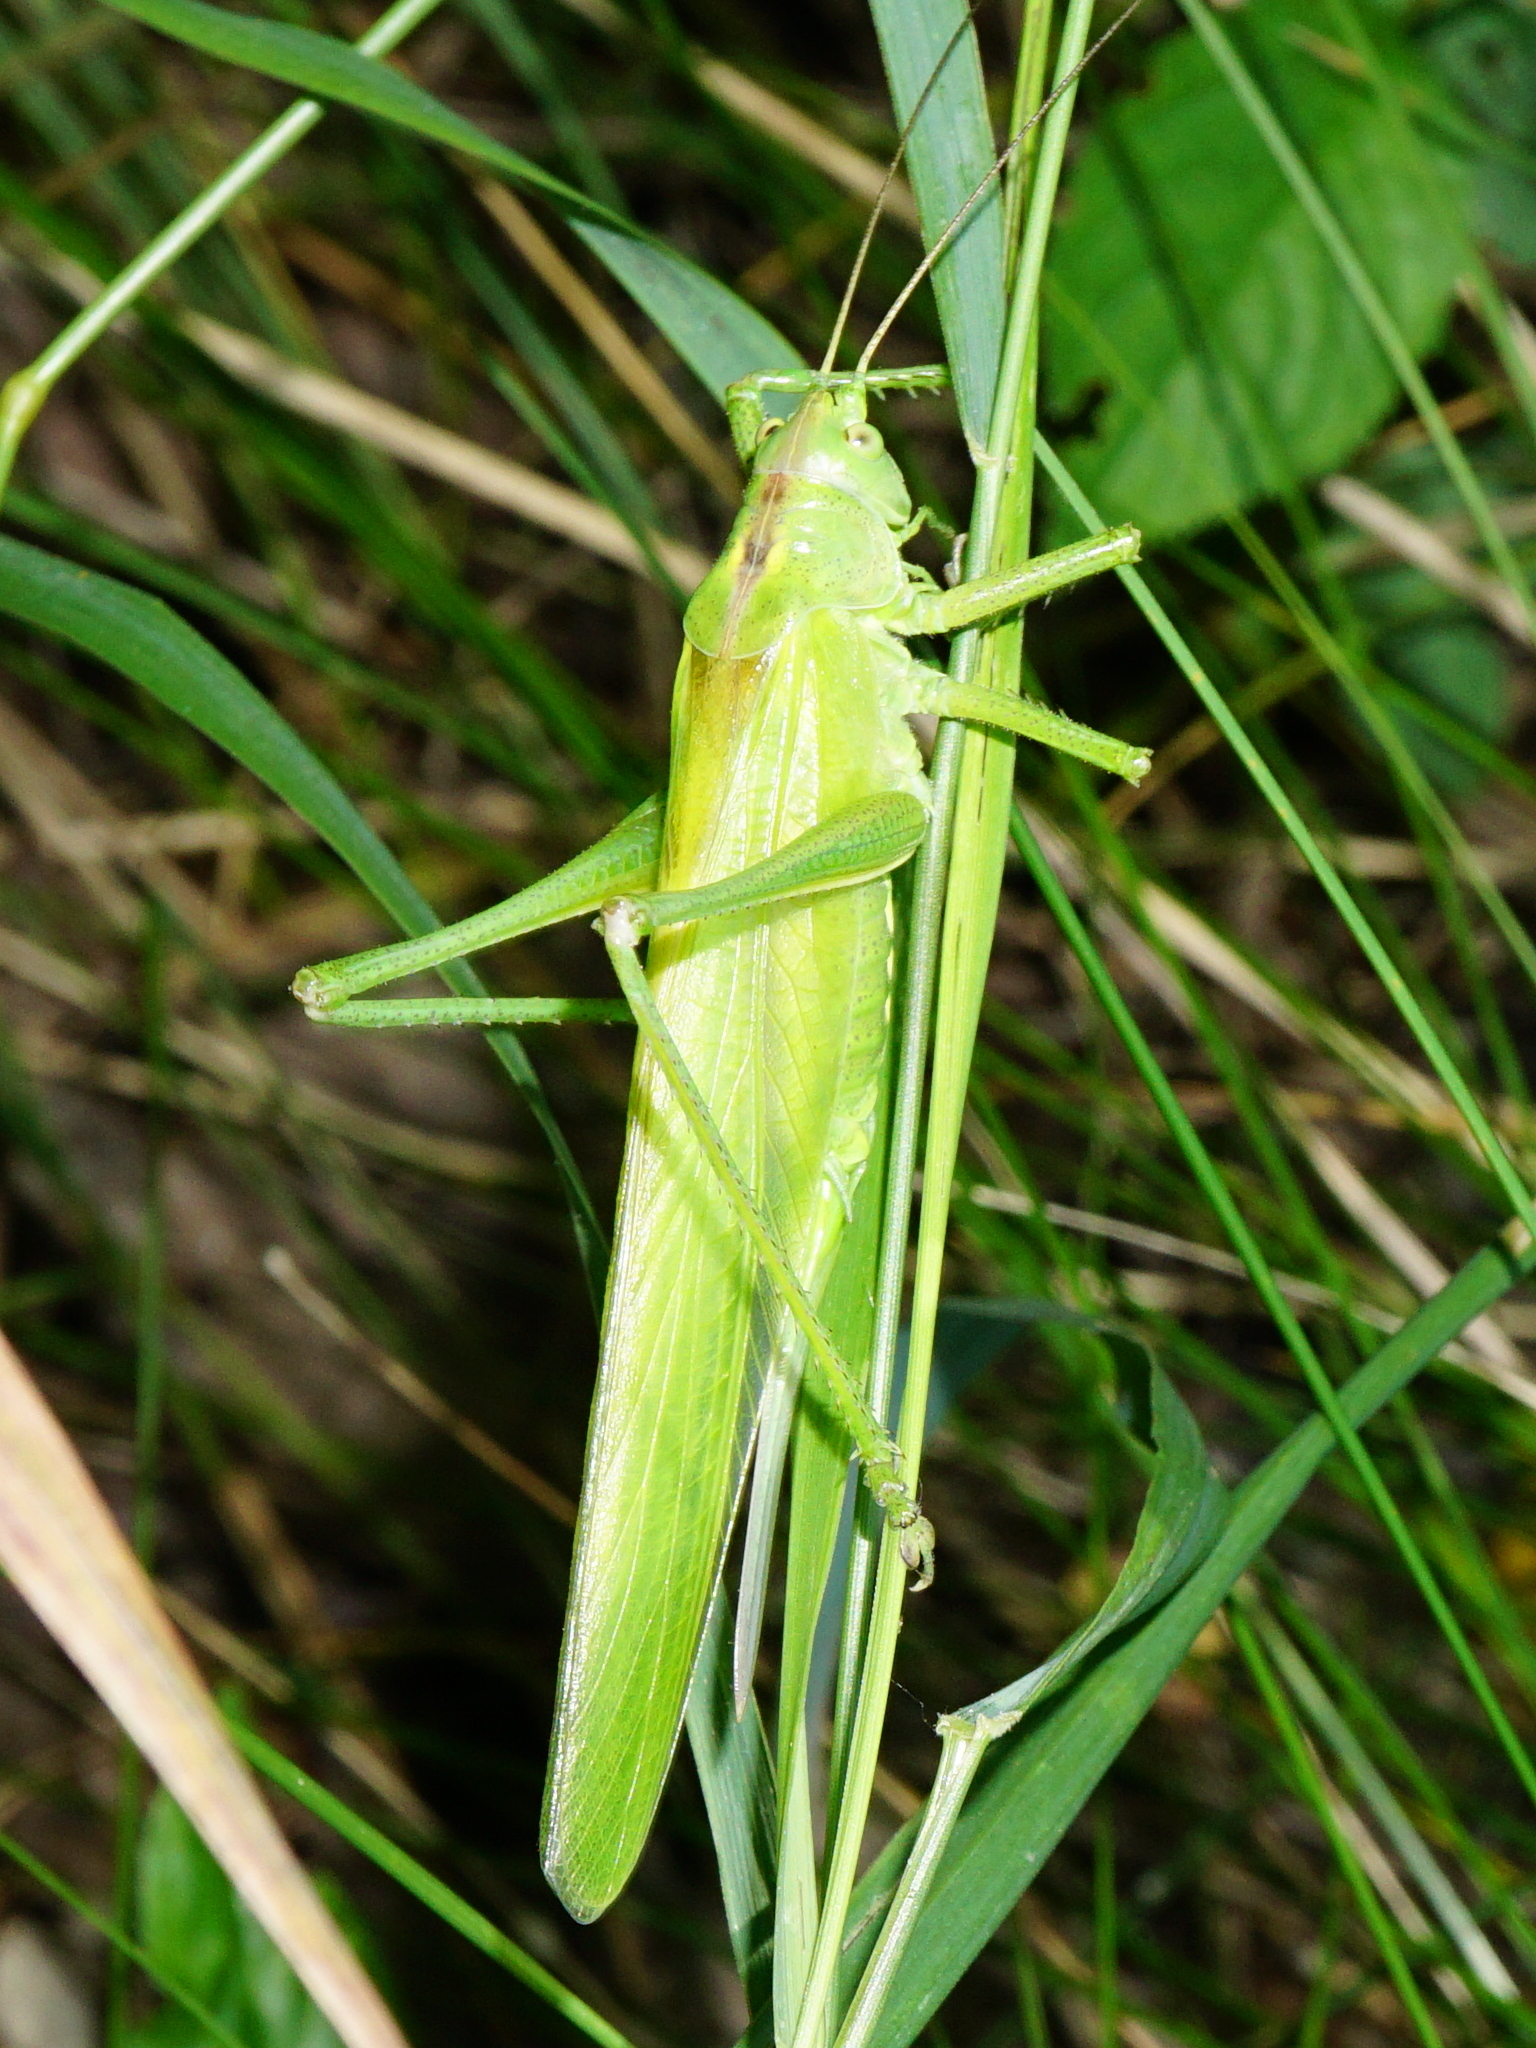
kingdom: Animalia
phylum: Arthropoda
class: Insecta
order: Orthoptera
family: Tettigoniidae
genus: Tettigonia
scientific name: Tettigonia viridissima
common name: Great green bush-cricket
